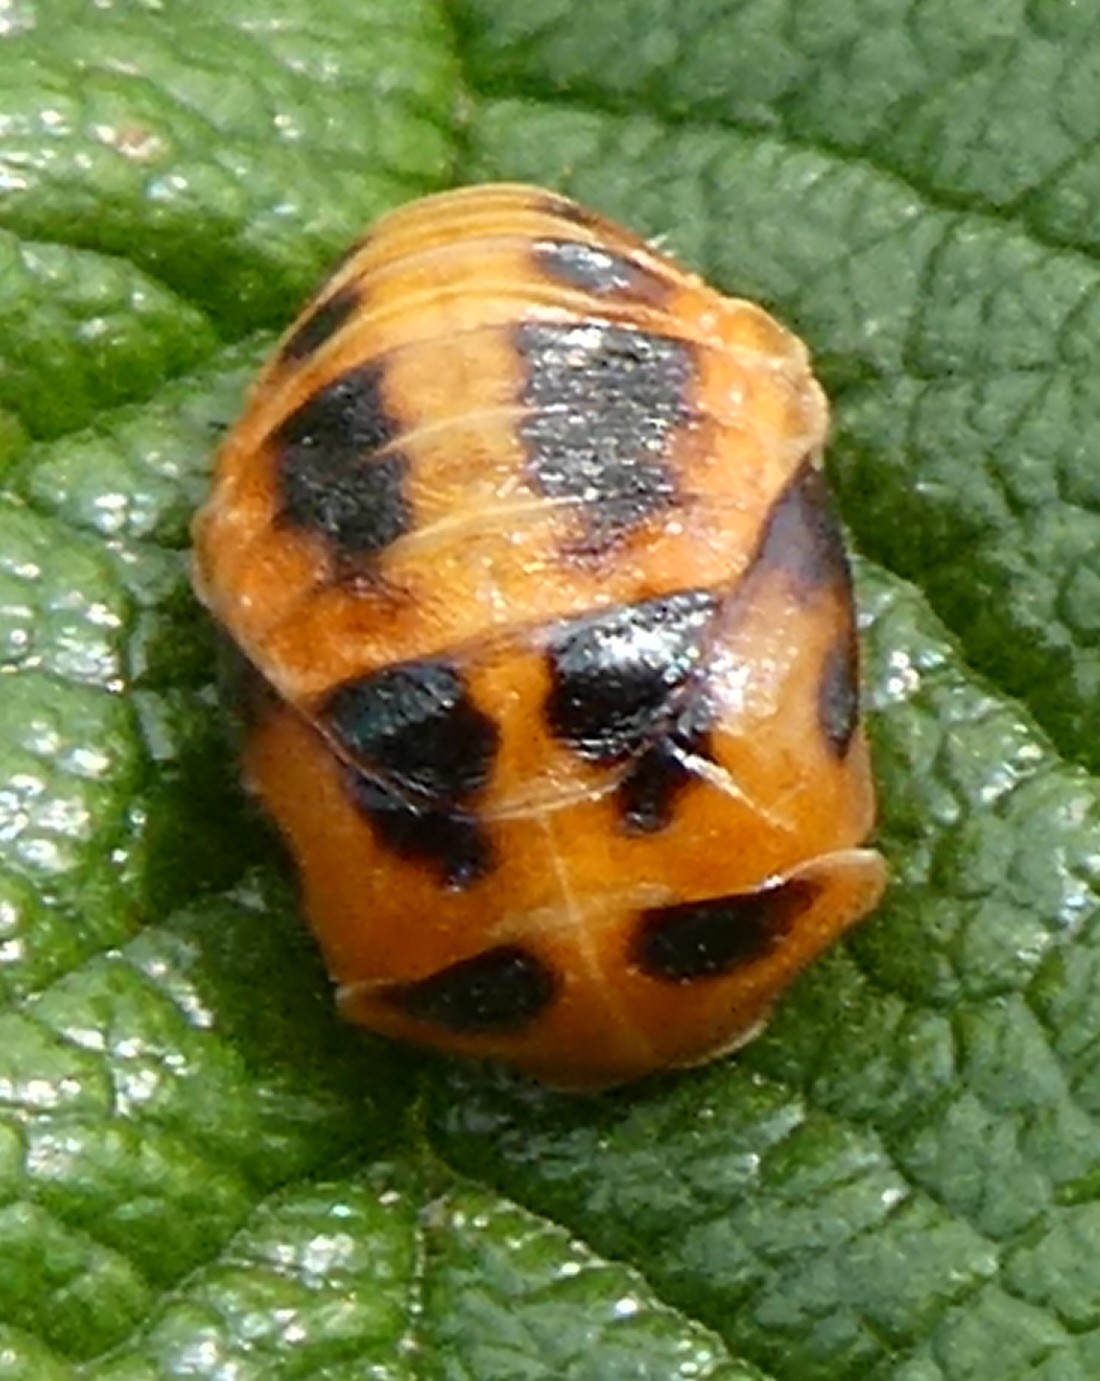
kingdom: Animalia
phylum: Arthropoda
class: Insecta
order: Coleoptera
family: Coccinellidae
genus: Harmonia
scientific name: Harmonia axyridis
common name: Harlequin ladybird
